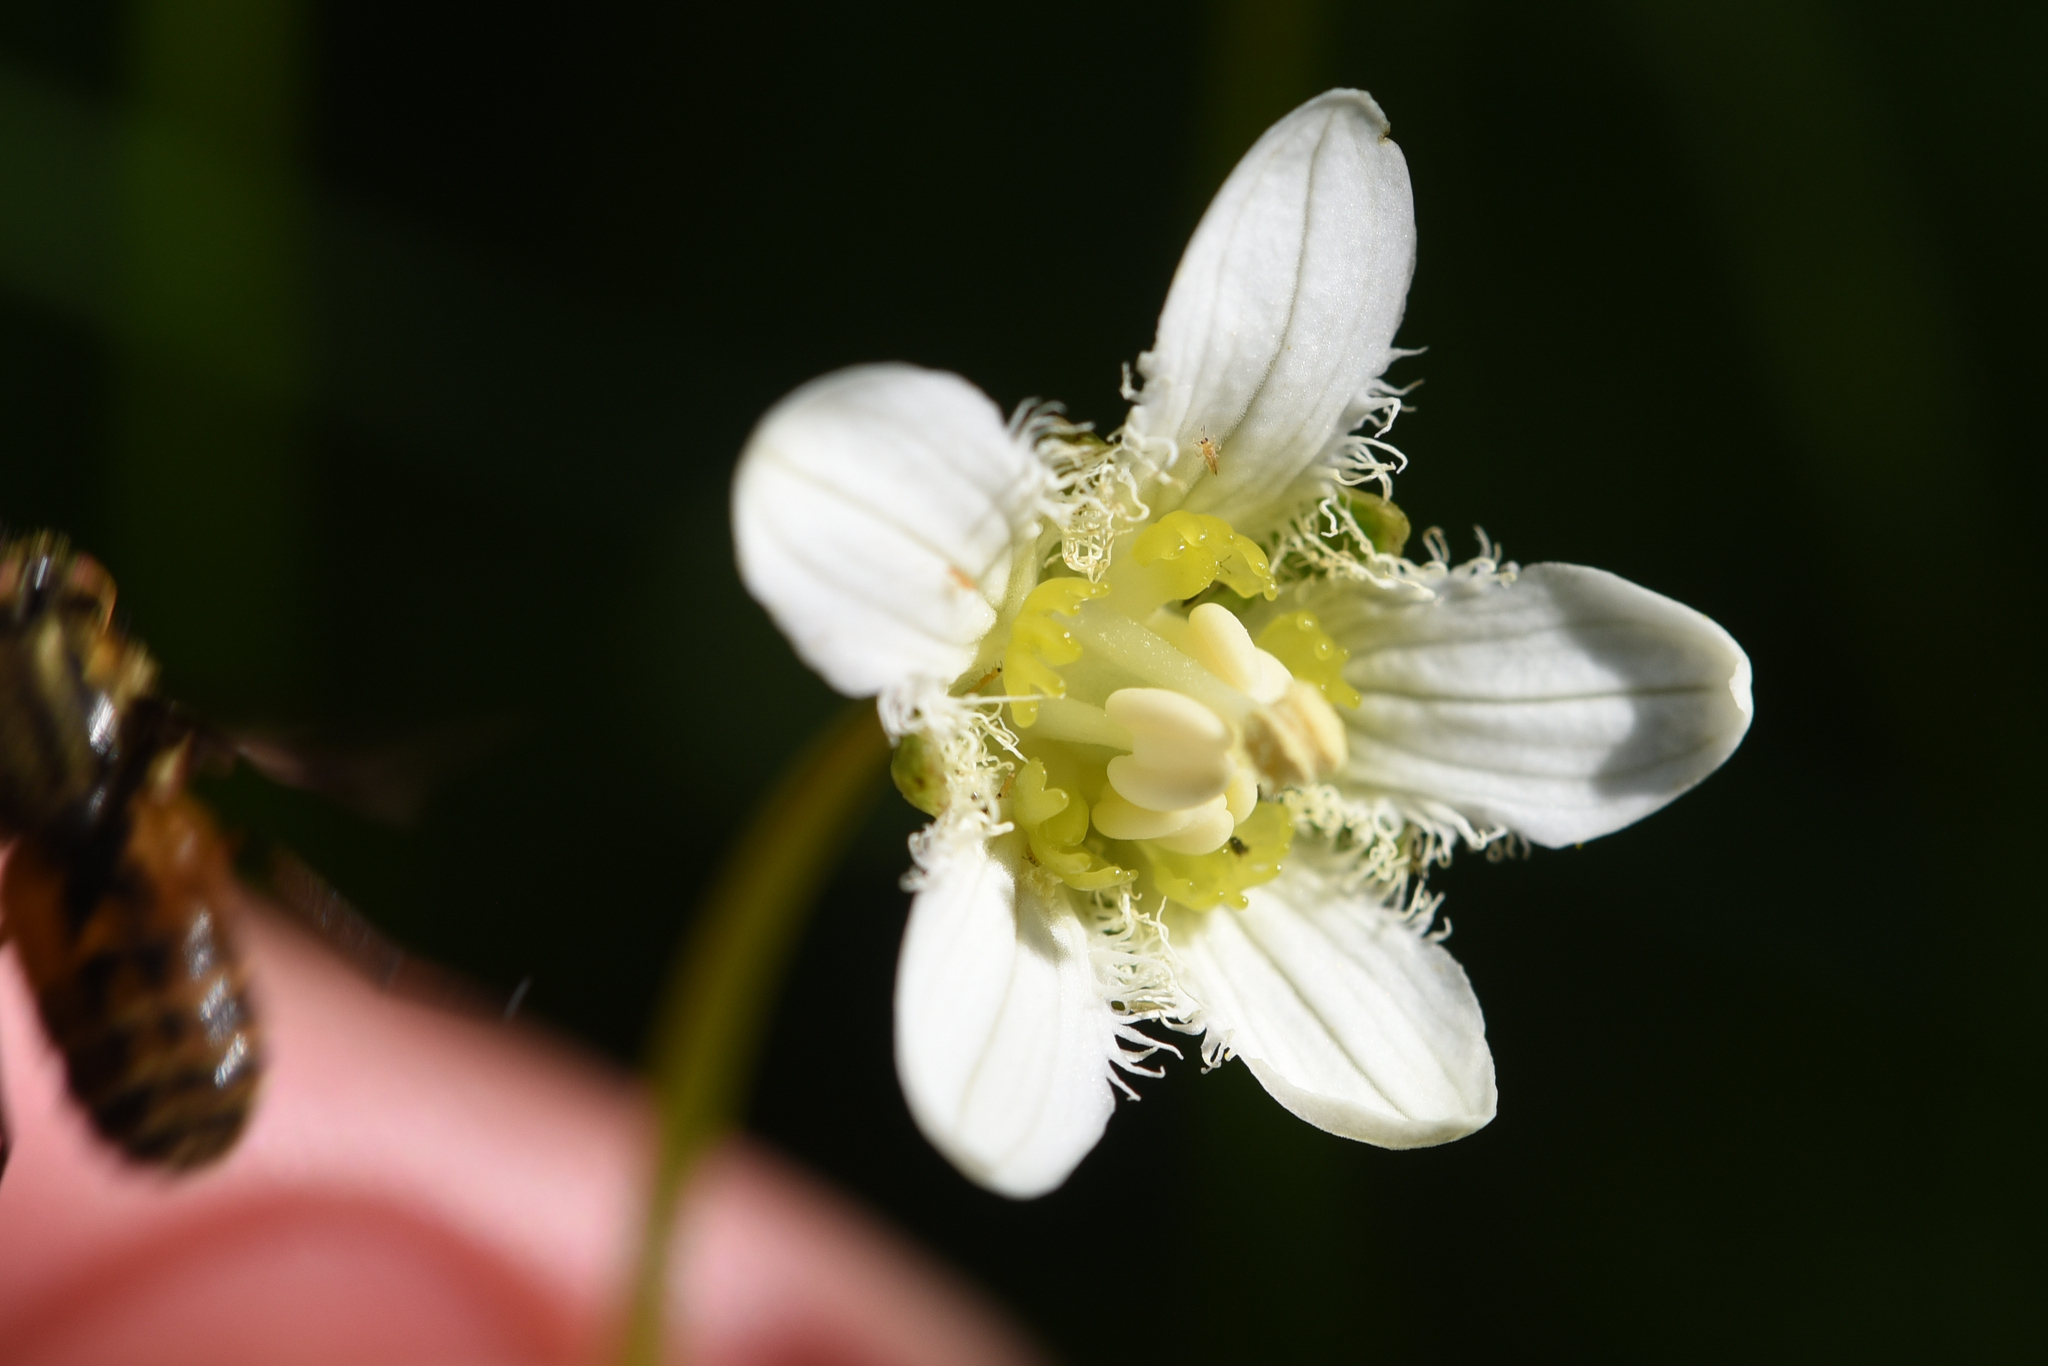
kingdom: Plantae
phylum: Tracheophyta
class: Magnoliopsida
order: Celastrales
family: Parnassiaceae
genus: Parnassia
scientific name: Parnassia fimbriata
